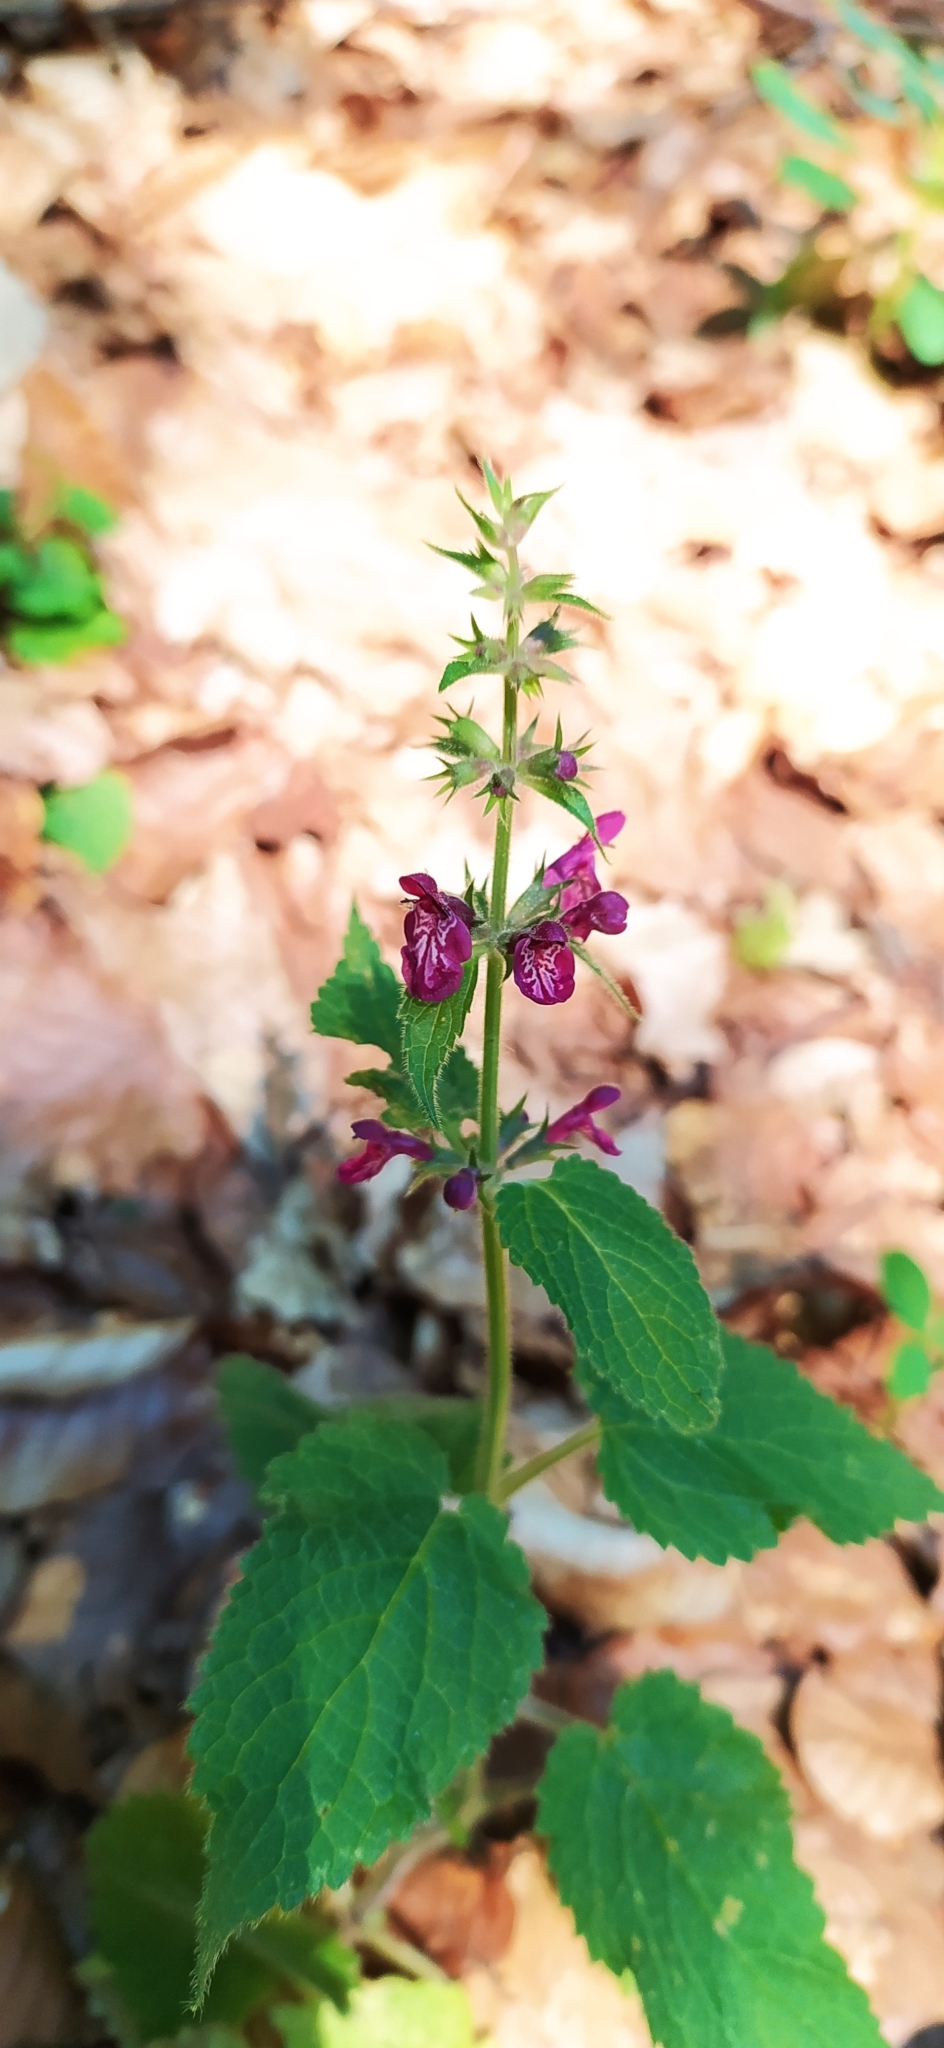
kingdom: Plantae
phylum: Tracheophyta
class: Magnoliopsida
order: Lamiales
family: Lamiaceae
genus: Stachys
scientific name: Stachys sylvatica
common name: Hedge woundwort
